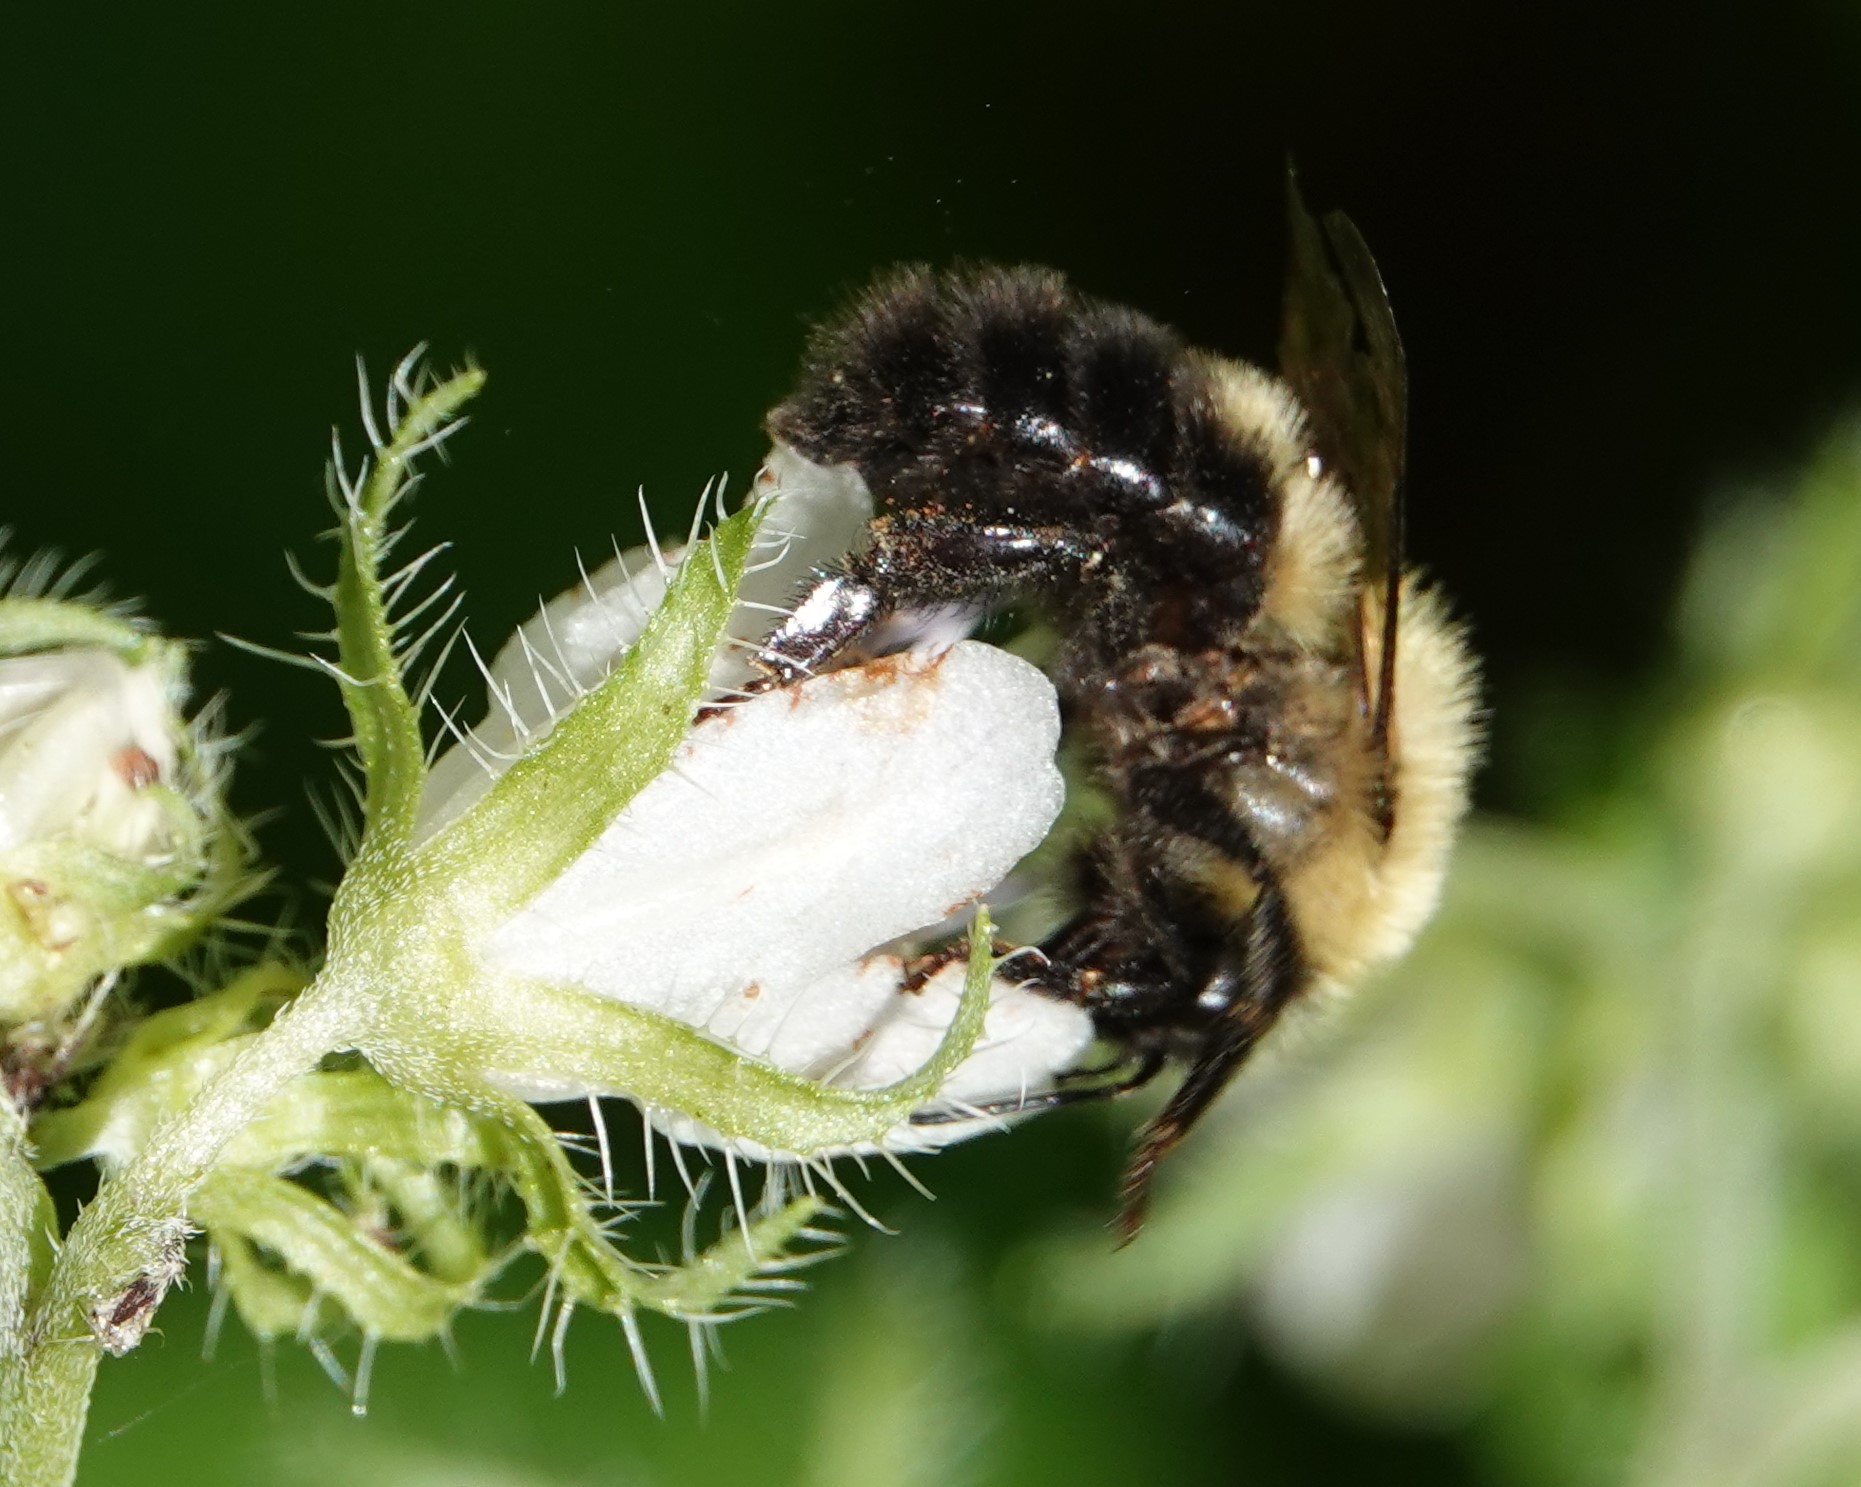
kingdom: Animalia
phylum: Arthropoda
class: Insecta
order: Hymenoptera
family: Apidae
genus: Bombus
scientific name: Bombus bimaculatus
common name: Two-spotted bumble bee
